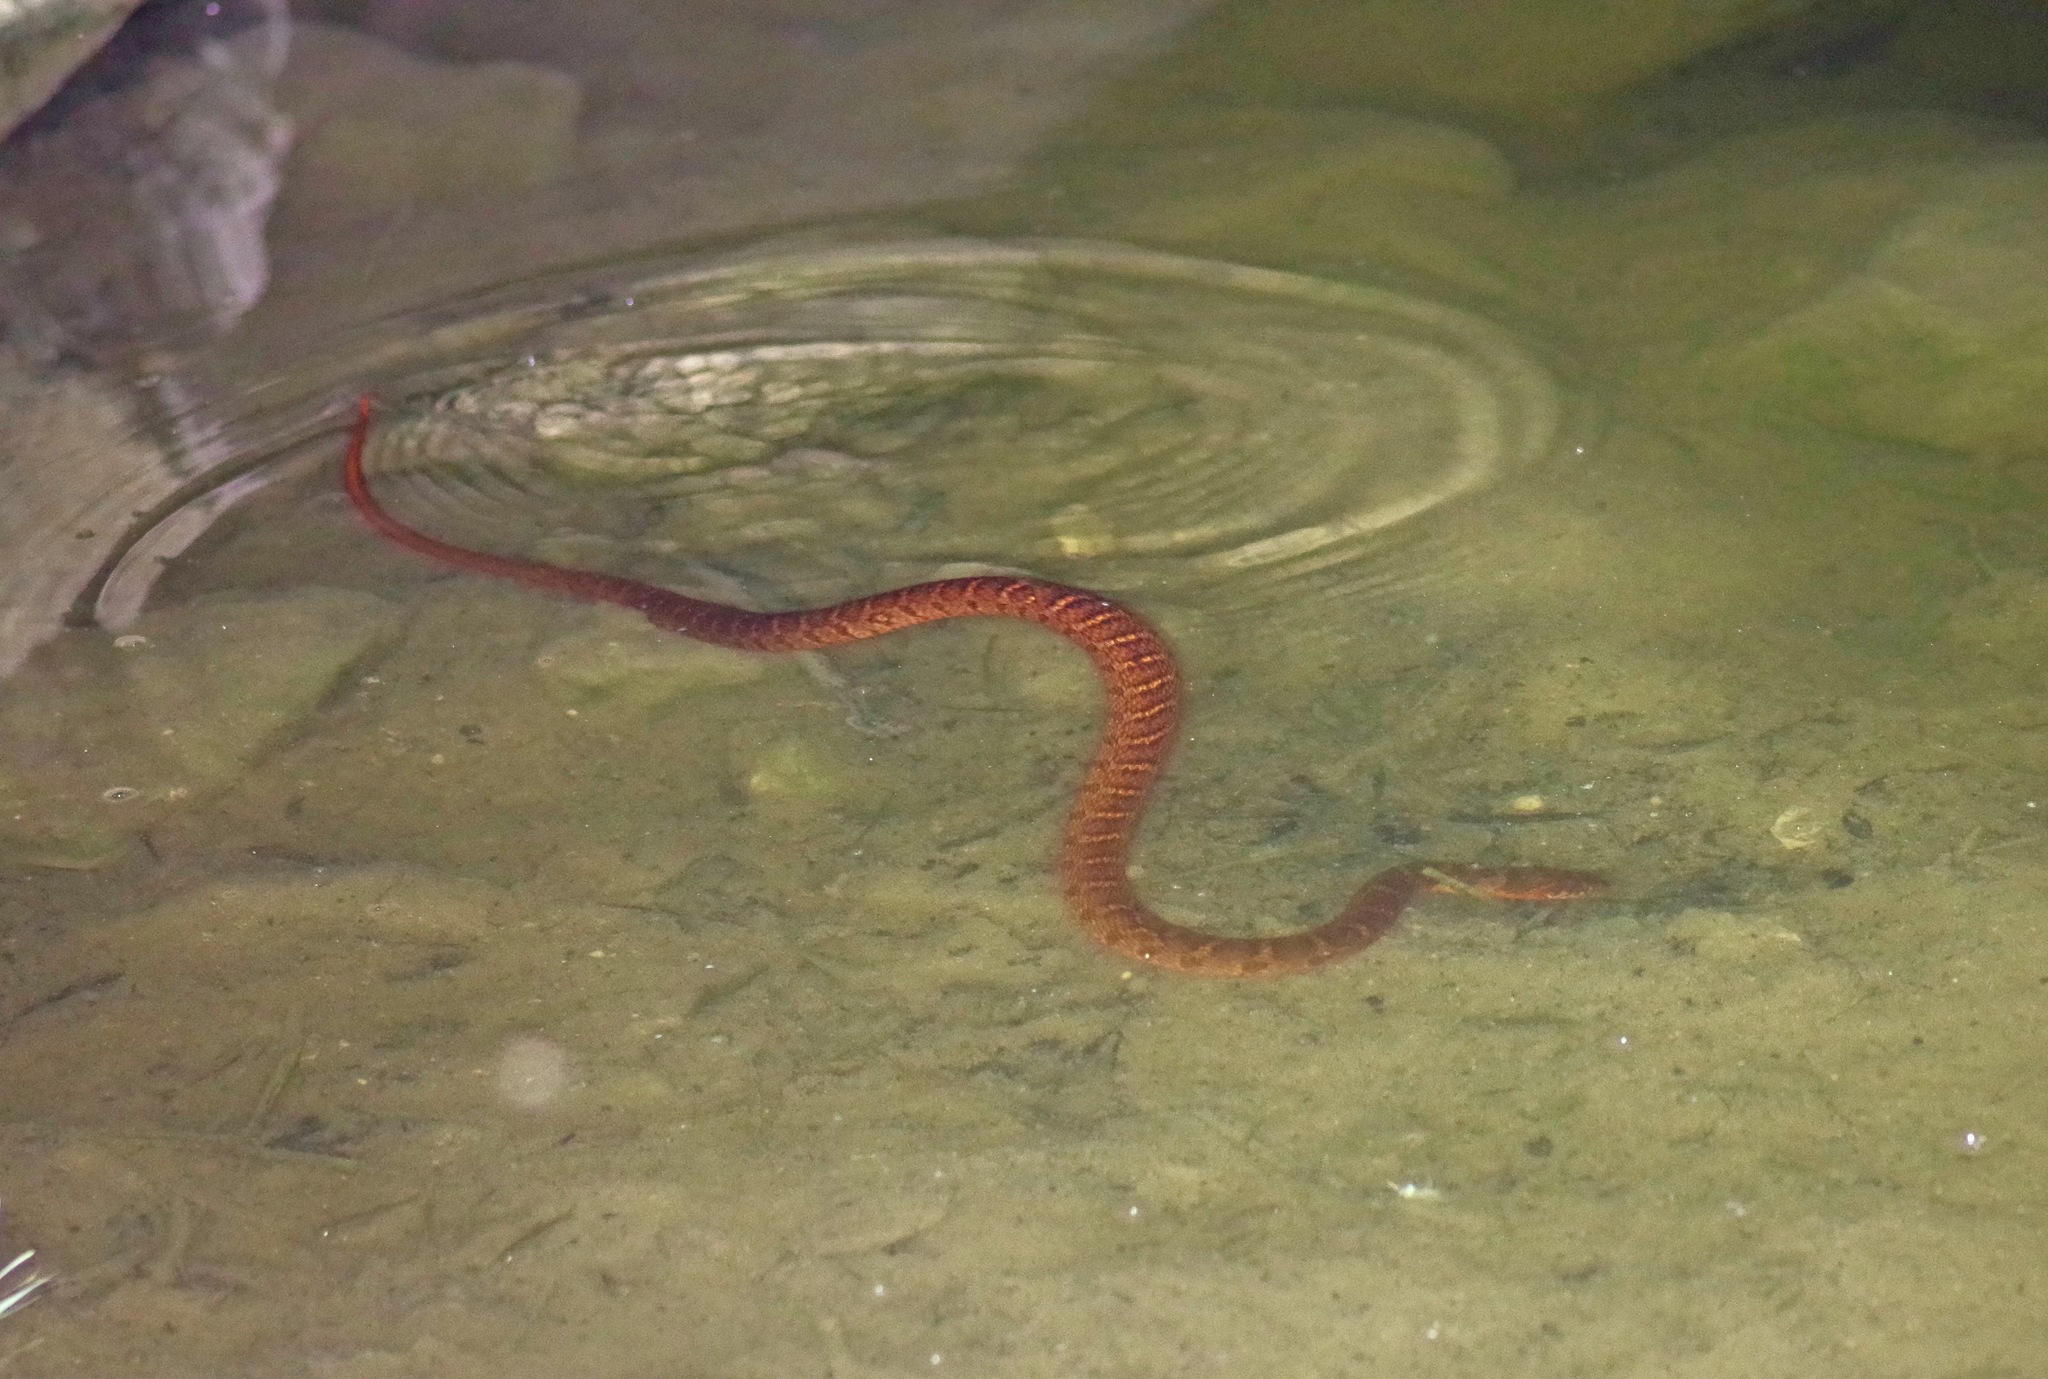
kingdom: Animalia
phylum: Chordata
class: Squamata
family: Colubridae
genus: Nerodia
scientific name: Nerodia erythrogaster
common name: Plainbelly water snake
